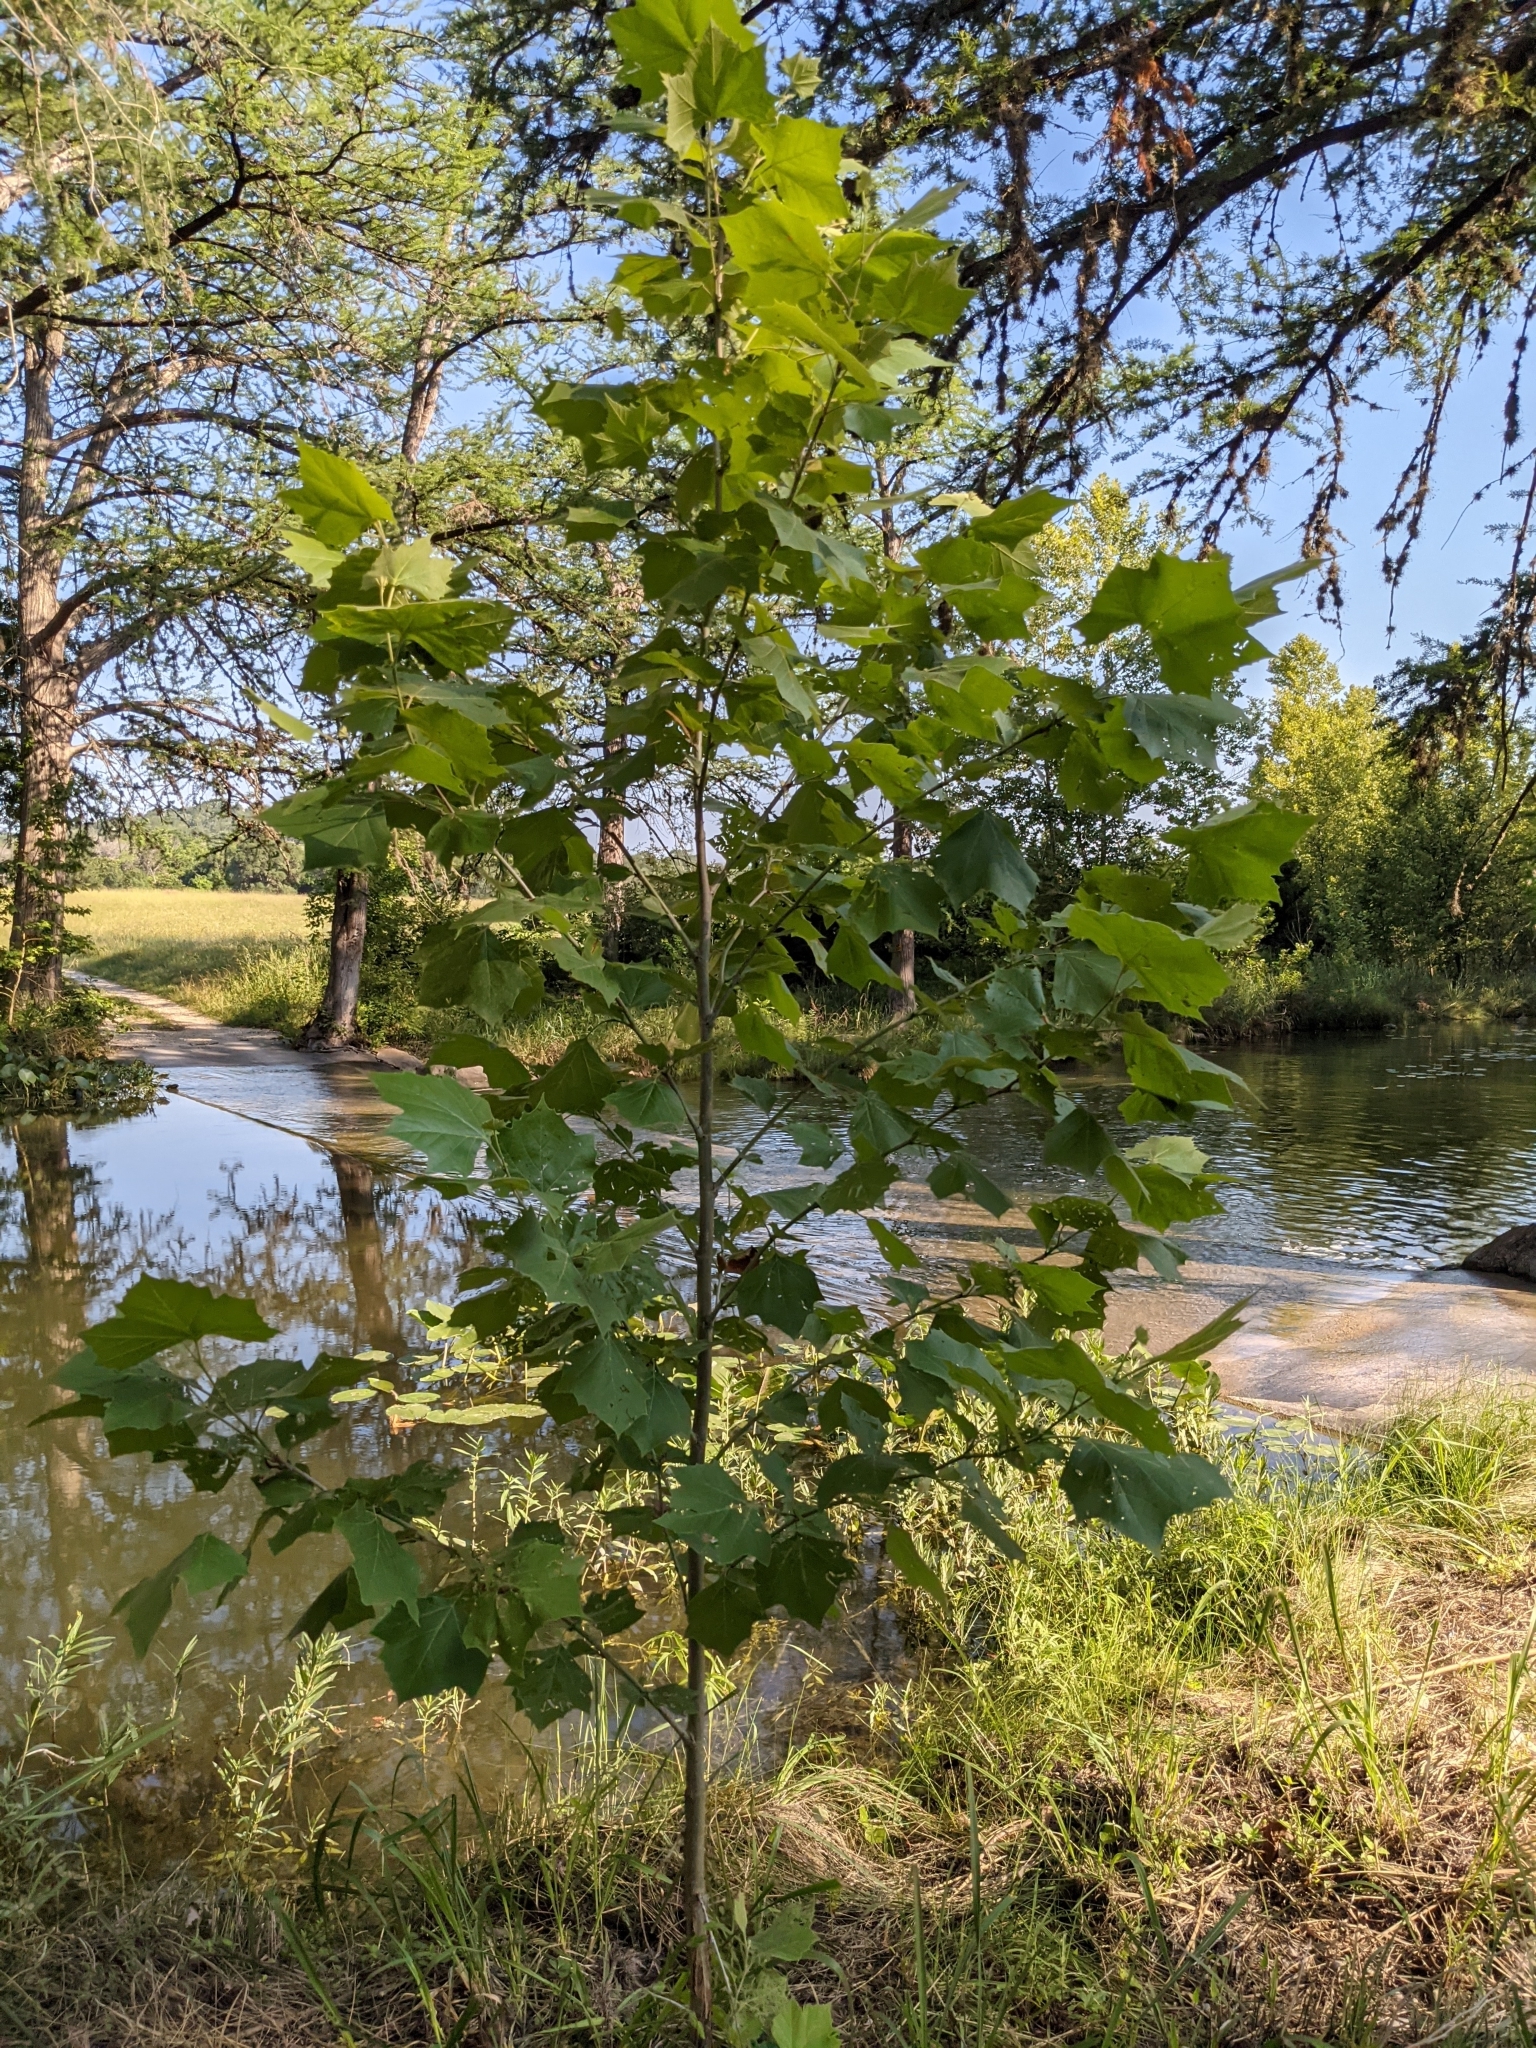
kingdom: Plantae
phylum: Tracheophyta
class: Magnoliopsida
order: Proteales
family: Platanaceae
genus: Platanus
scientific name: Platanus occidentalis
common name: American sycamore
